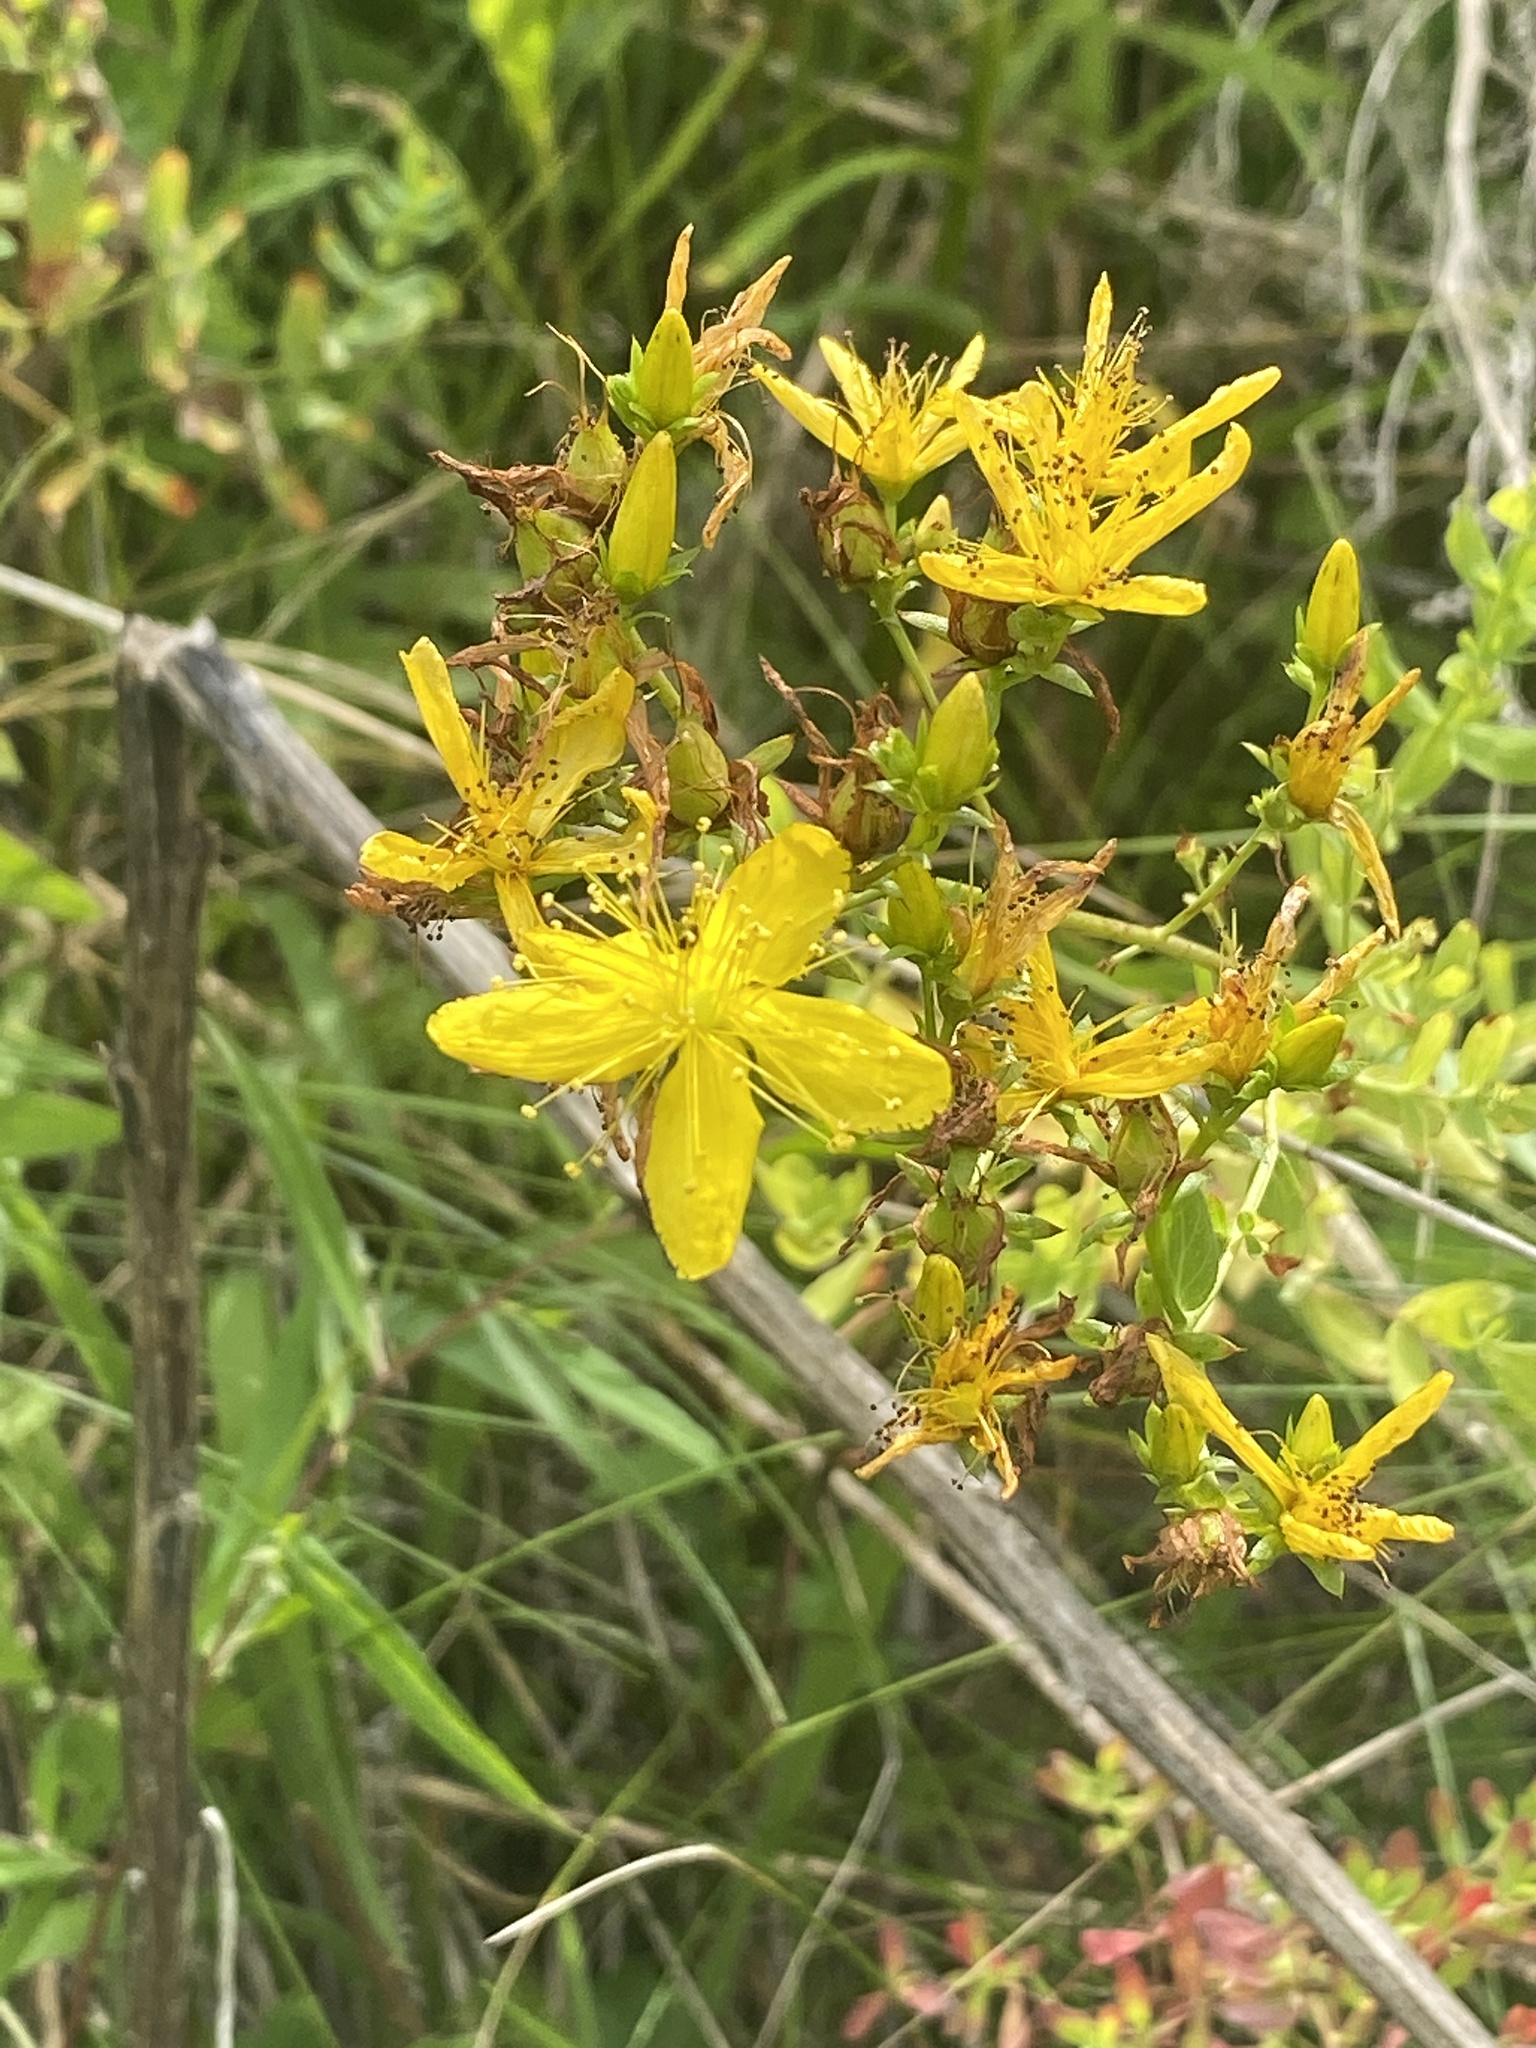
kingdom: Plantae
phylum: Tracheophyta
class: Magnoliopsida
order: Malpighiales
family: Hypericaceae
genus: Hypericum
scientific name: Hypericum perforatum
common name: Common st. johnswort
